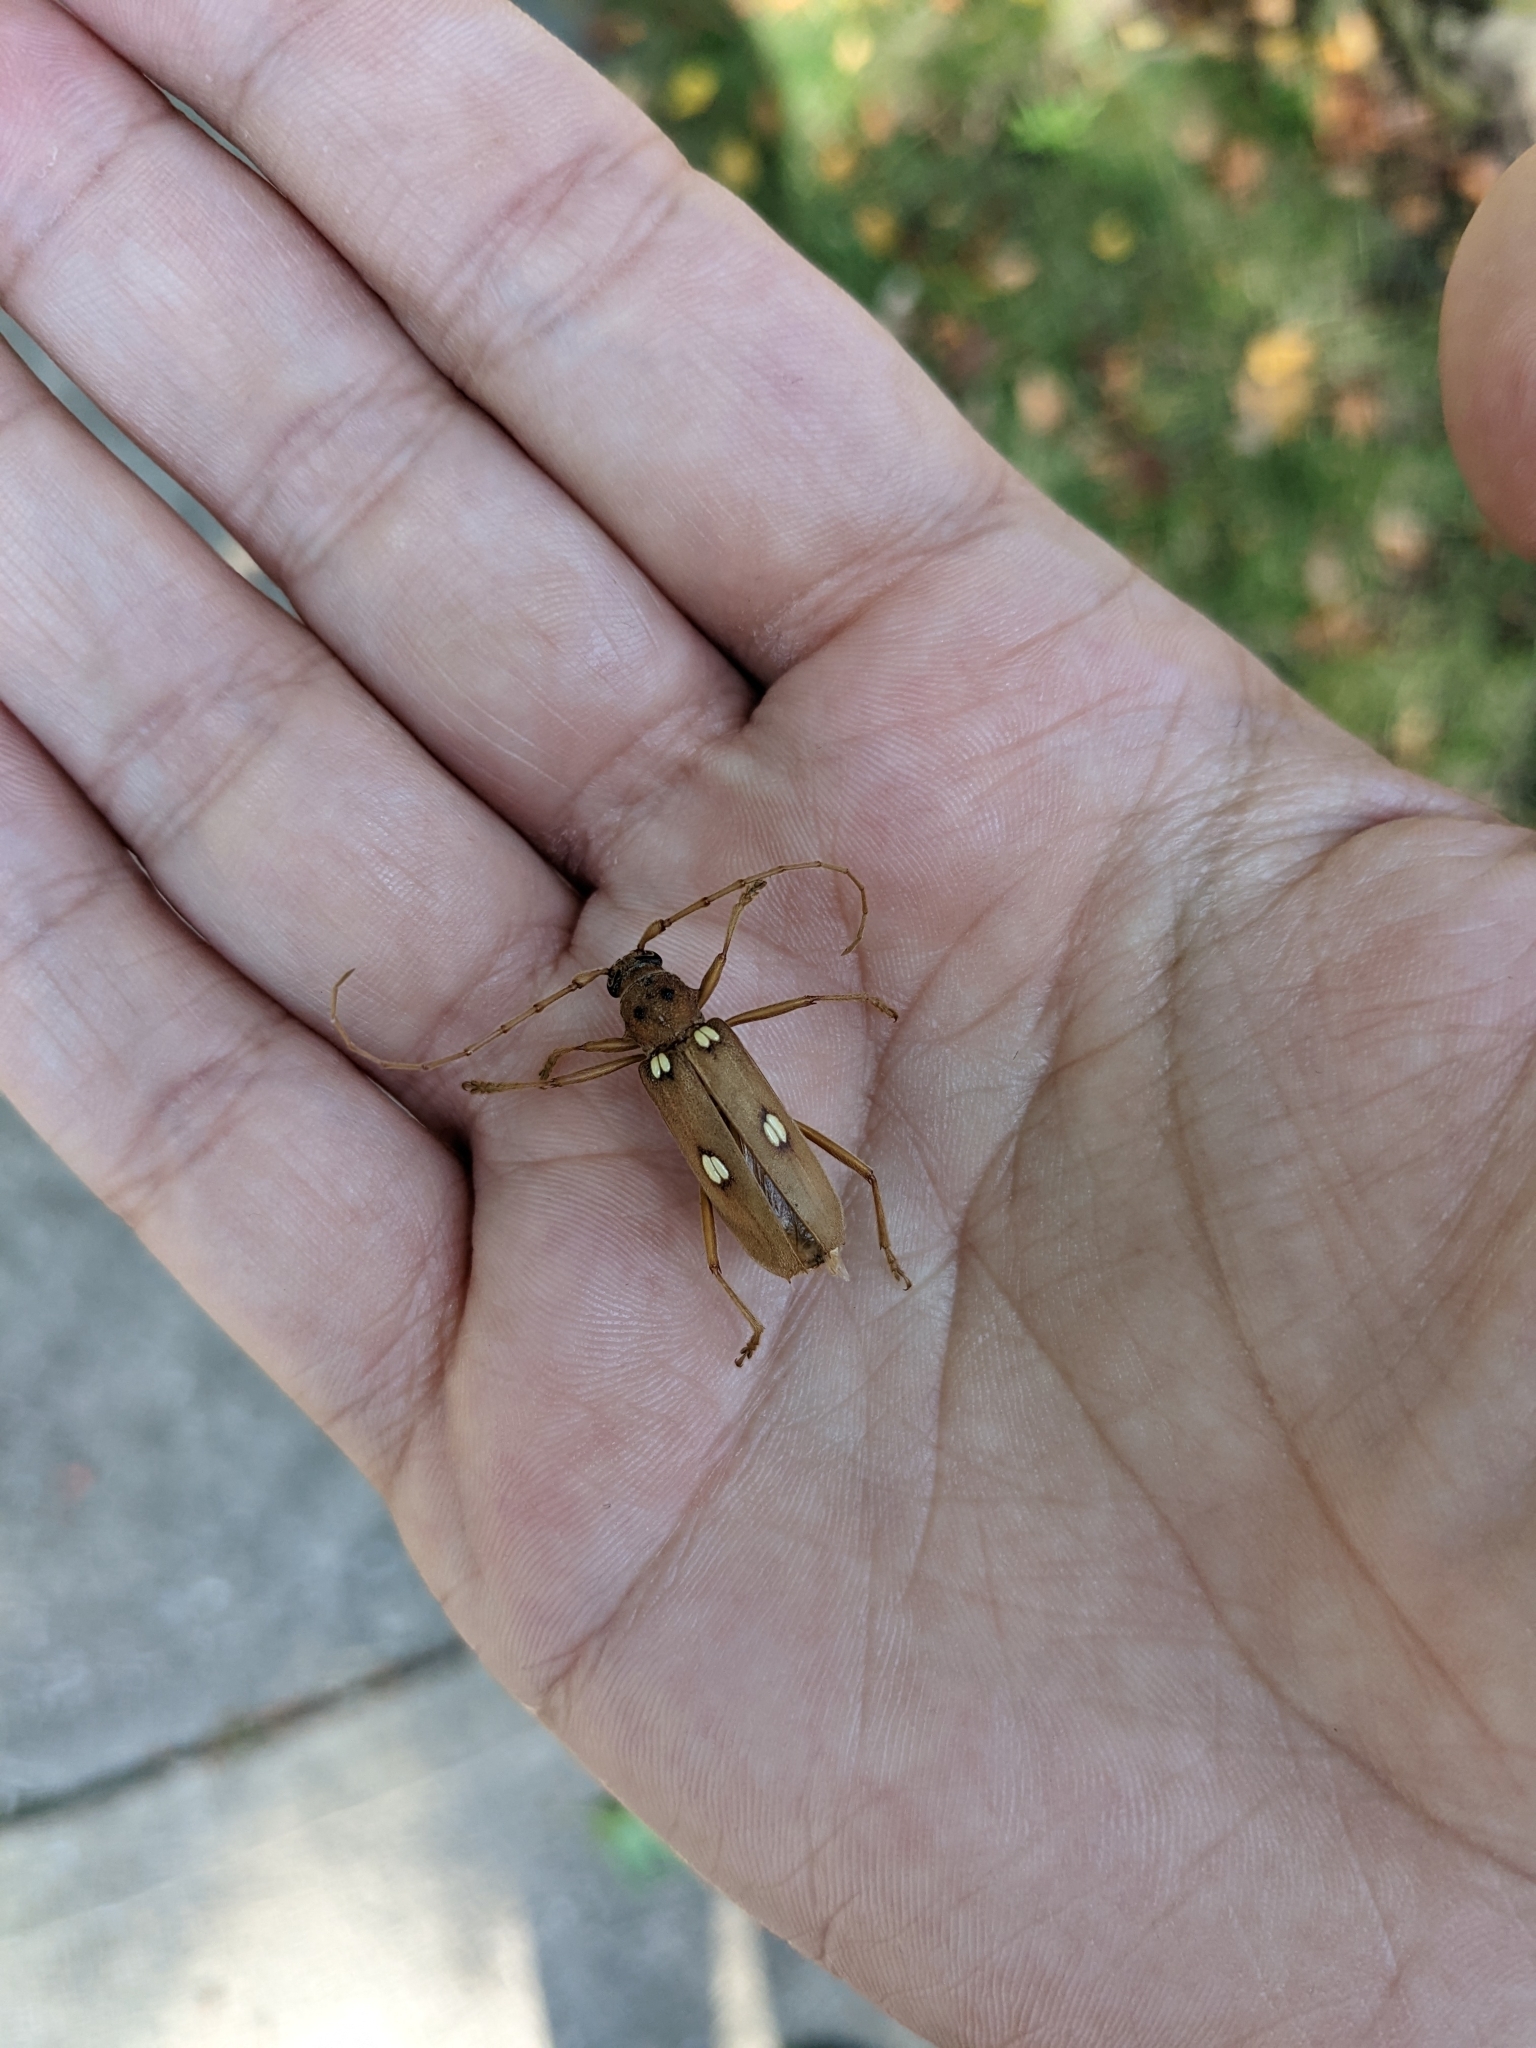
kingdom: Animalia
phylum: Arthropoda
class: Insecta
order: Coleoptera
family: Cerambycidae
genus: Eburia
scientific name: Eburia quadrigeminata
